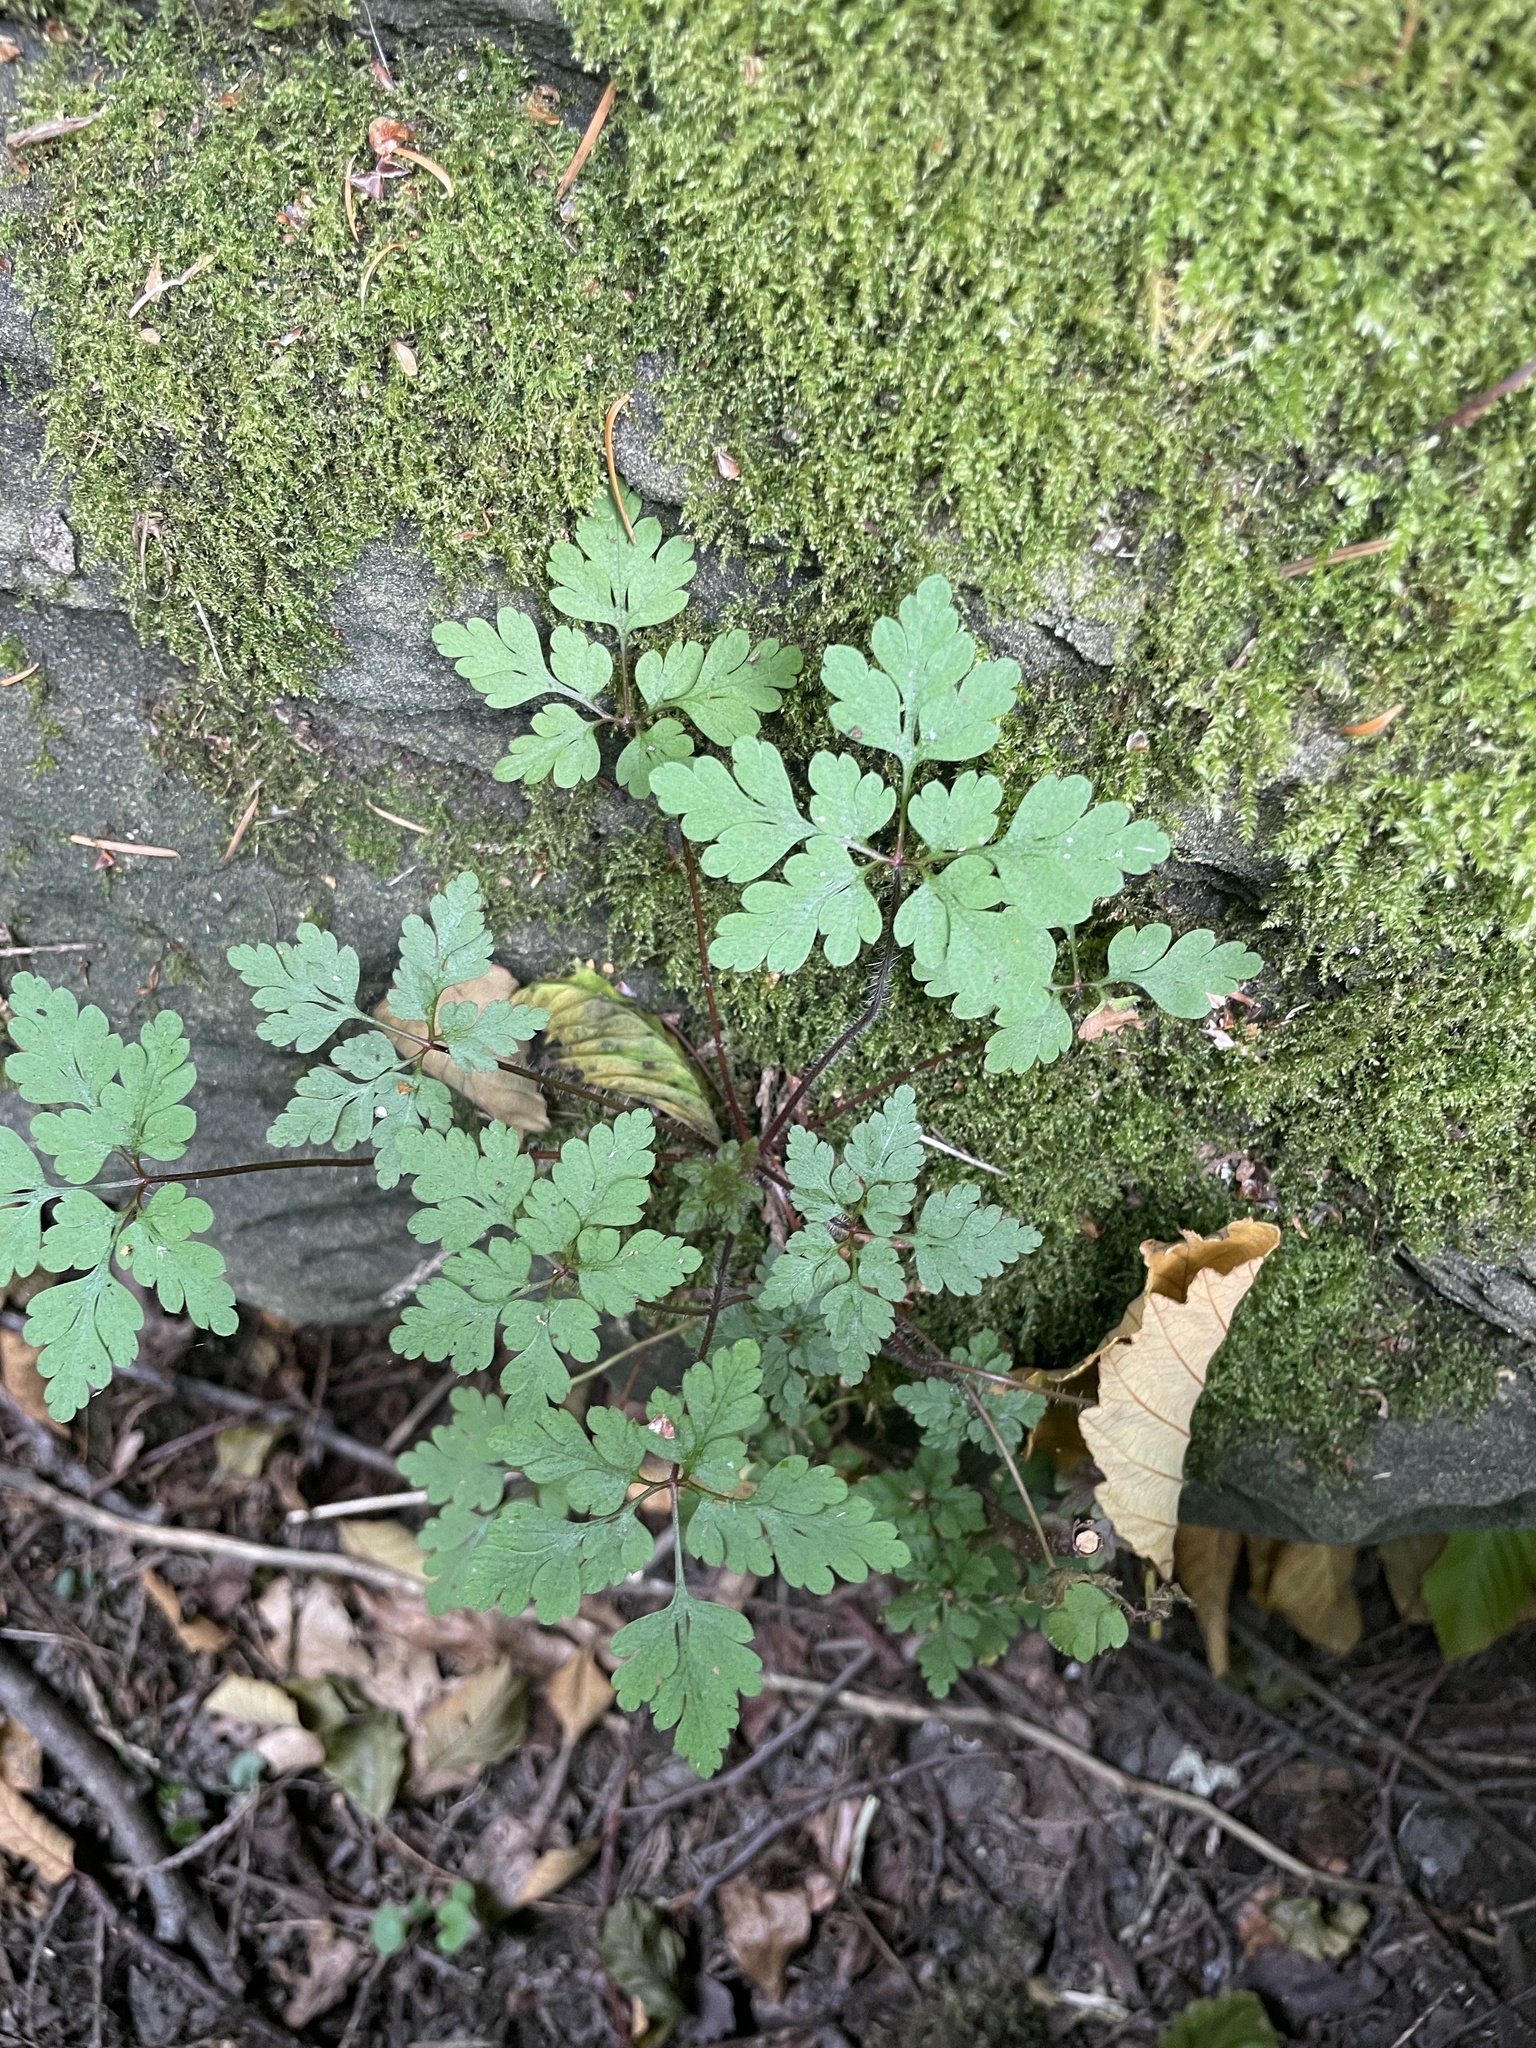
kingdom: Plantae
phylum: Tracheophyta
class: Magnoliopsida
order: Geraniales
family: Geraniaceae
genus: Geranium
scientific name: Geranium robertianum
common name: Herb-robert
